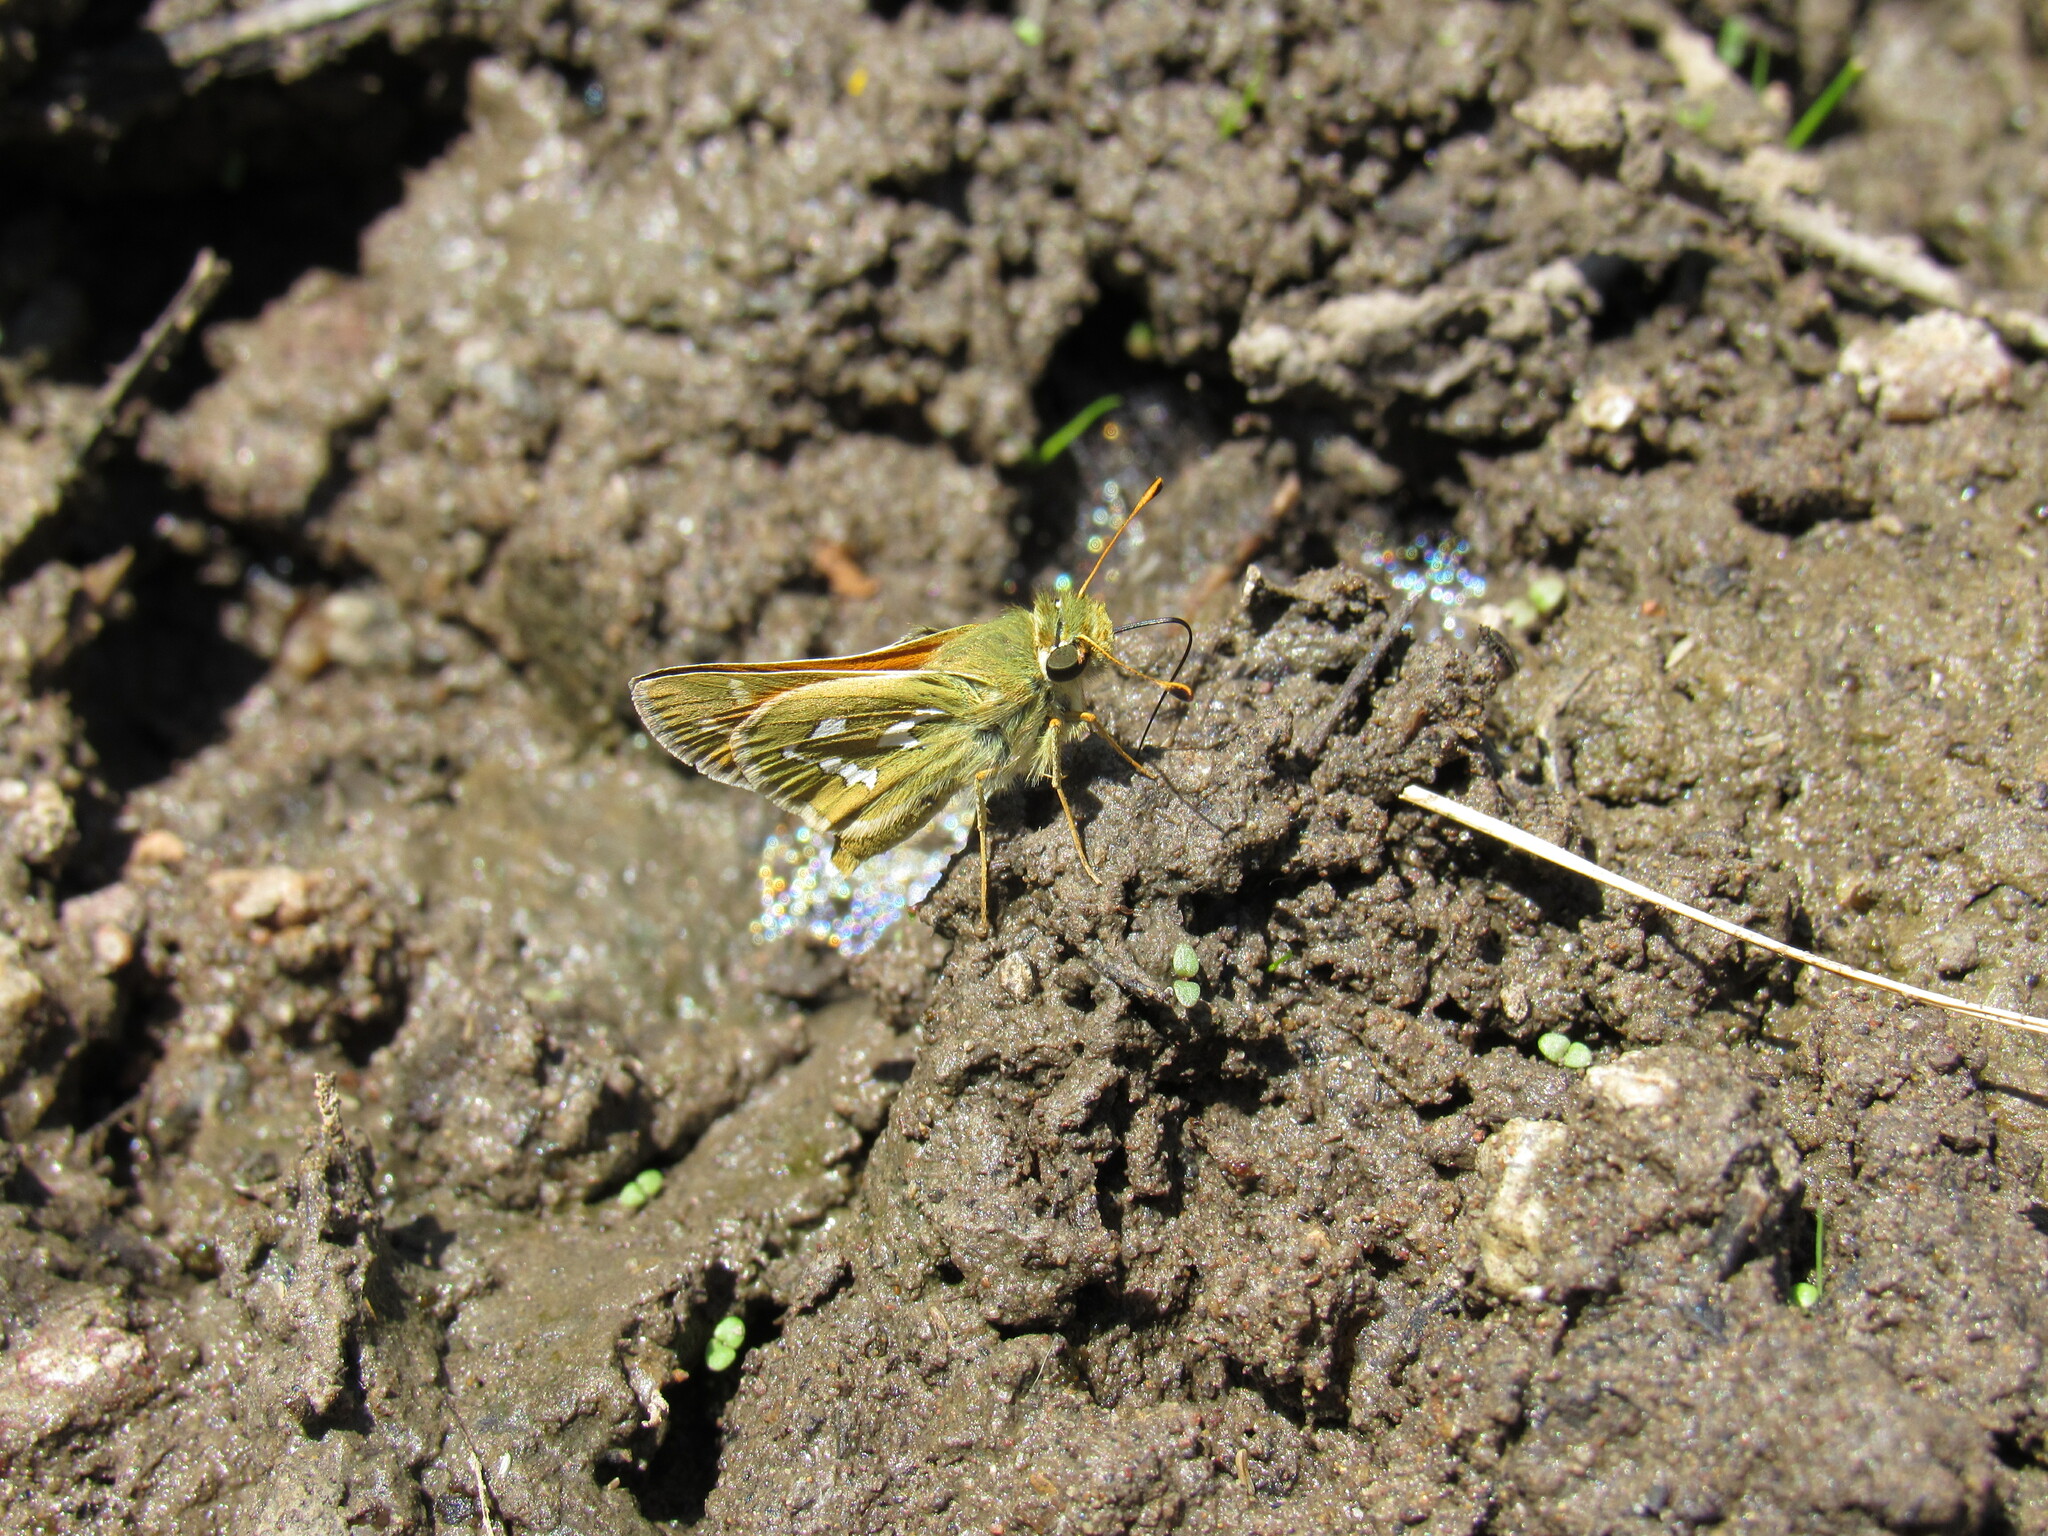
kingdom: Animalia
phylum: Arthropoda
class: Insecta
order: Lepidoptera
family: Hesperiidae
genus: Hesperia
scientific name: Hesperia comma
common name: Common branded skipper
